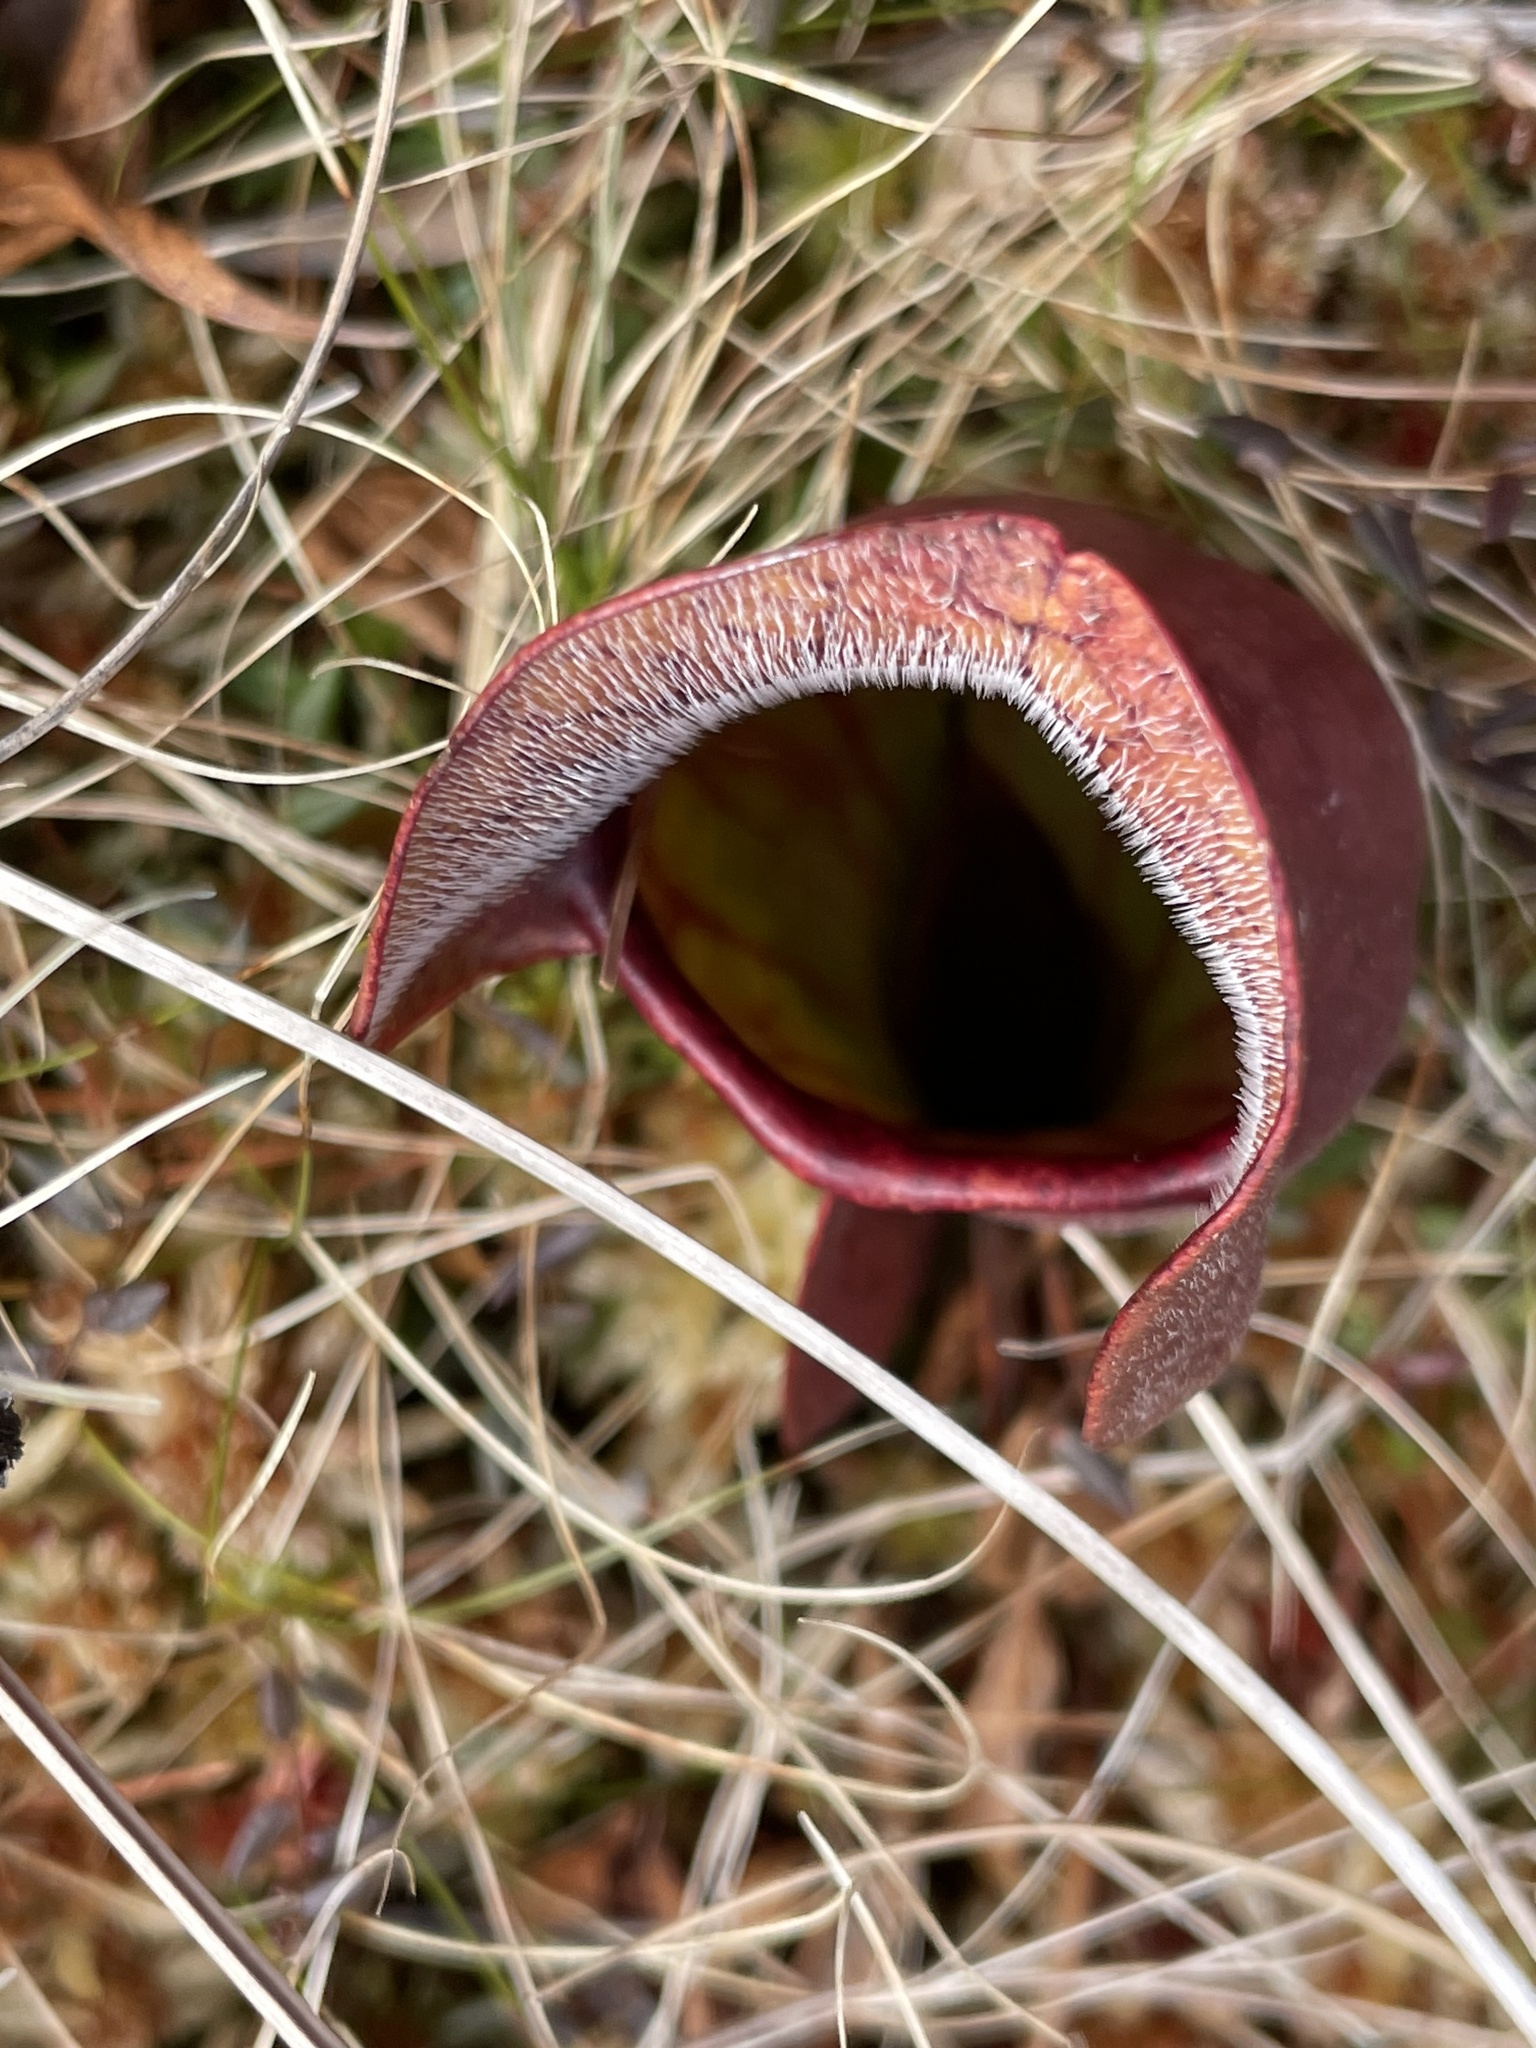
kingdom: Plantae
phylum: Tracheophyta
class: Magnoliopsida
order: Ericales
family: Sarraceniaceae
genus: Sarracenia
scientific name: Sarracenia purpurea
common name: Pitcherplant
